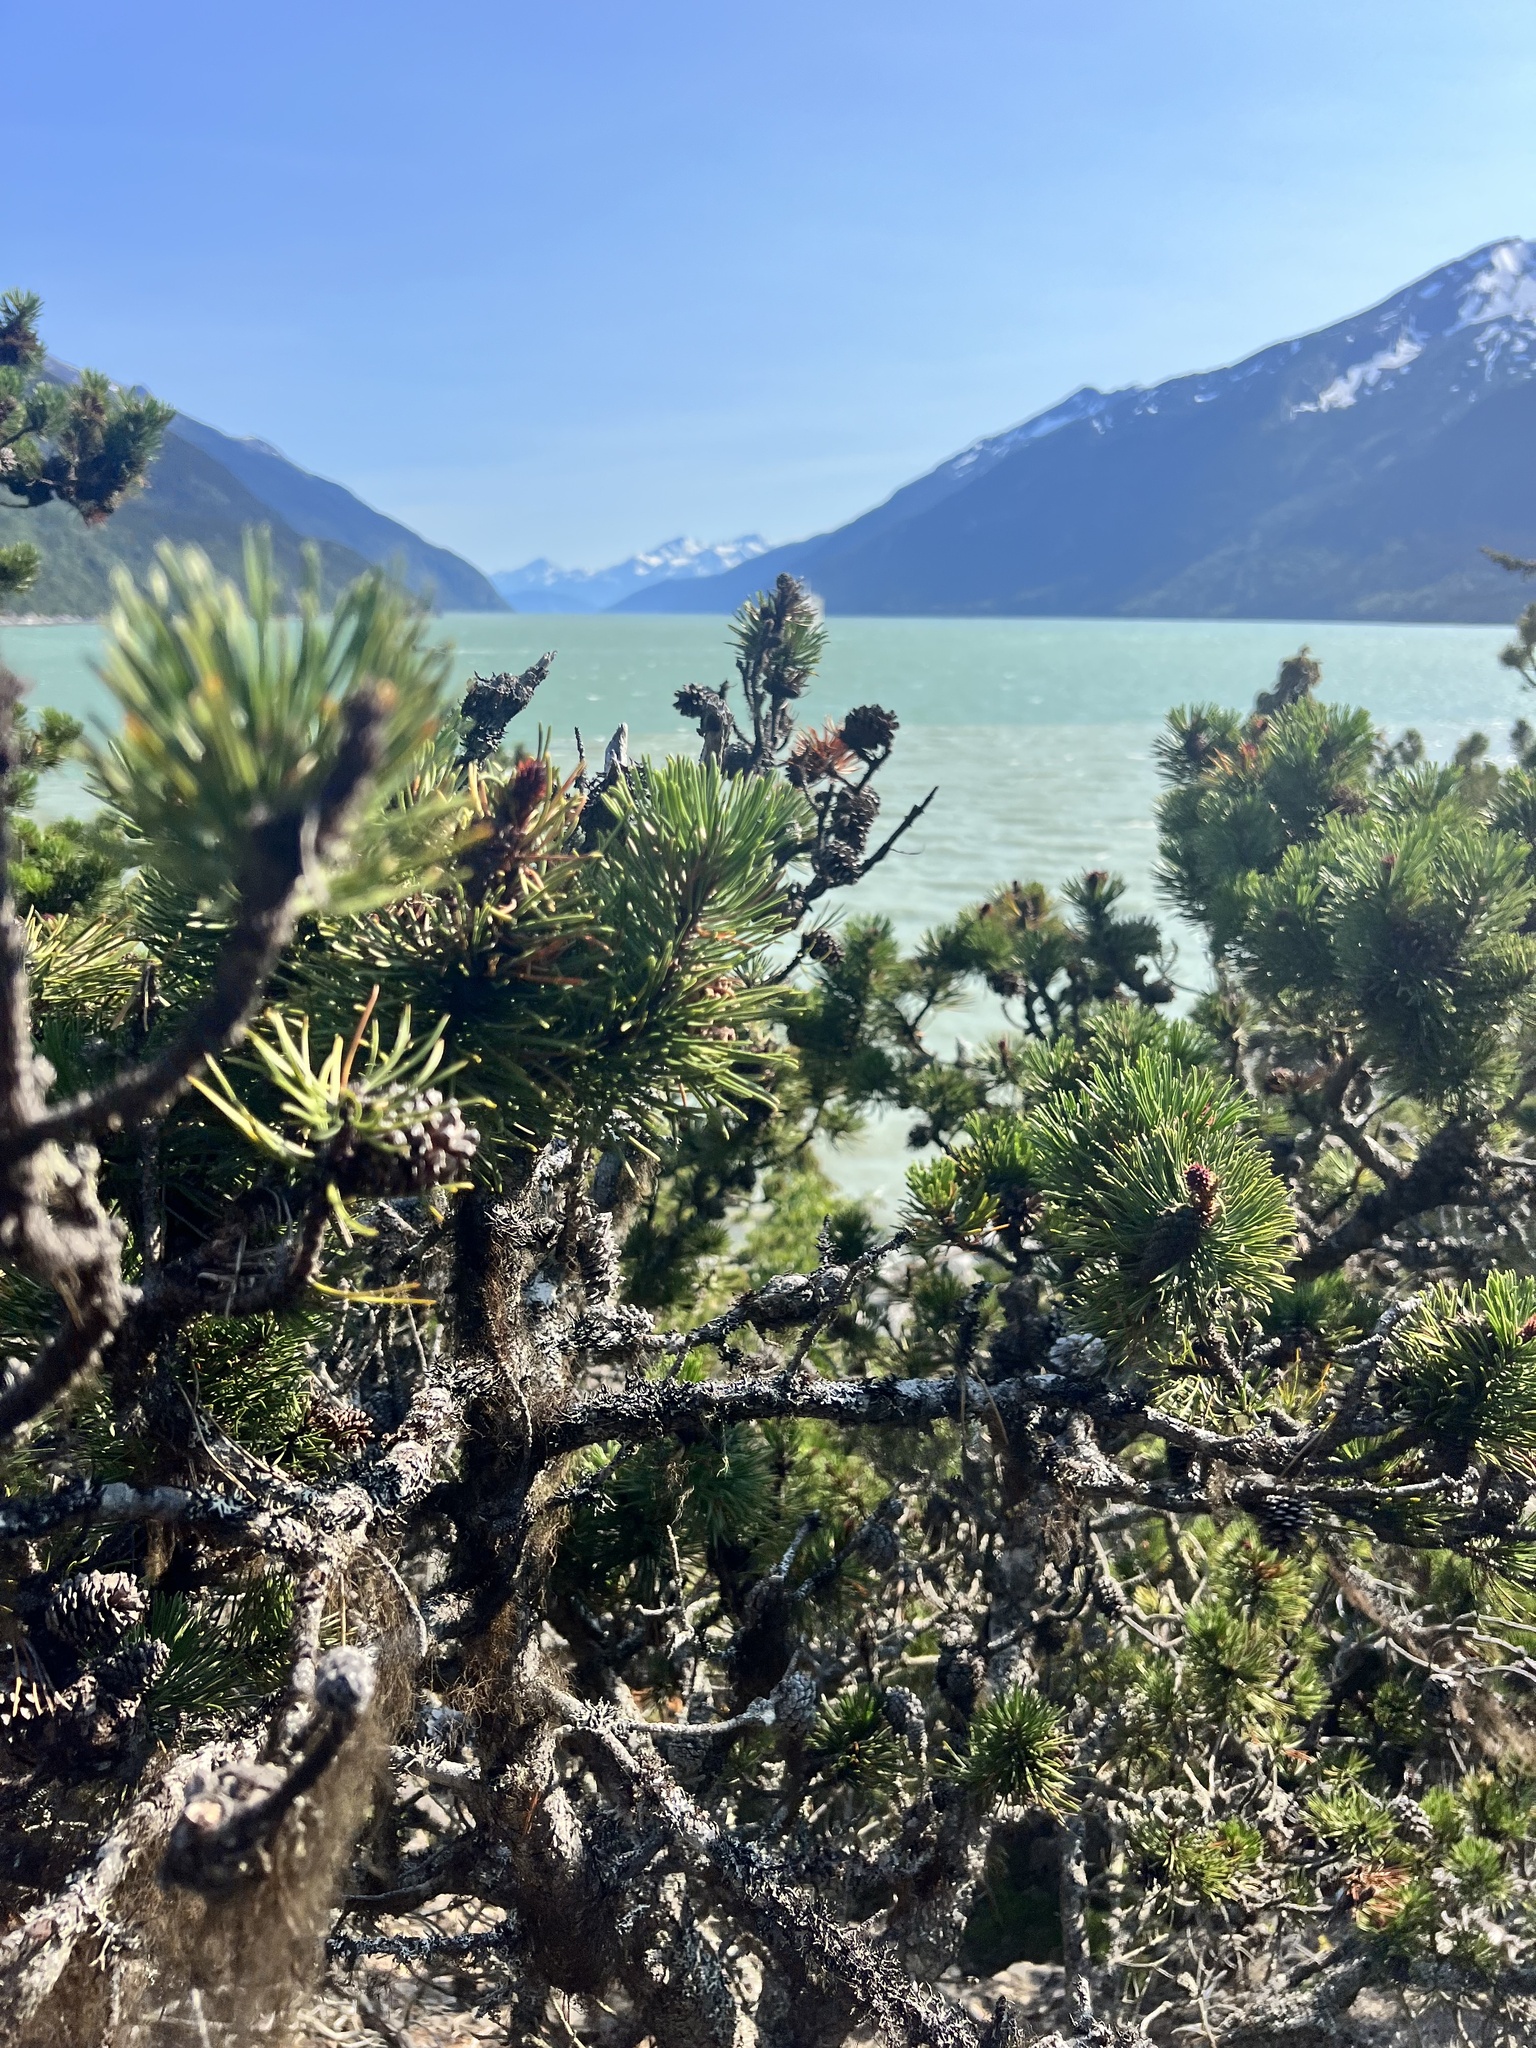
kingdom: Plantae
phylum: Tracheophyta
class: Pinopsida
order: Pinales
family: Pinaceae
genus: Pinus
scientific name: Pinus contorta
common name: Lodgepole pine
